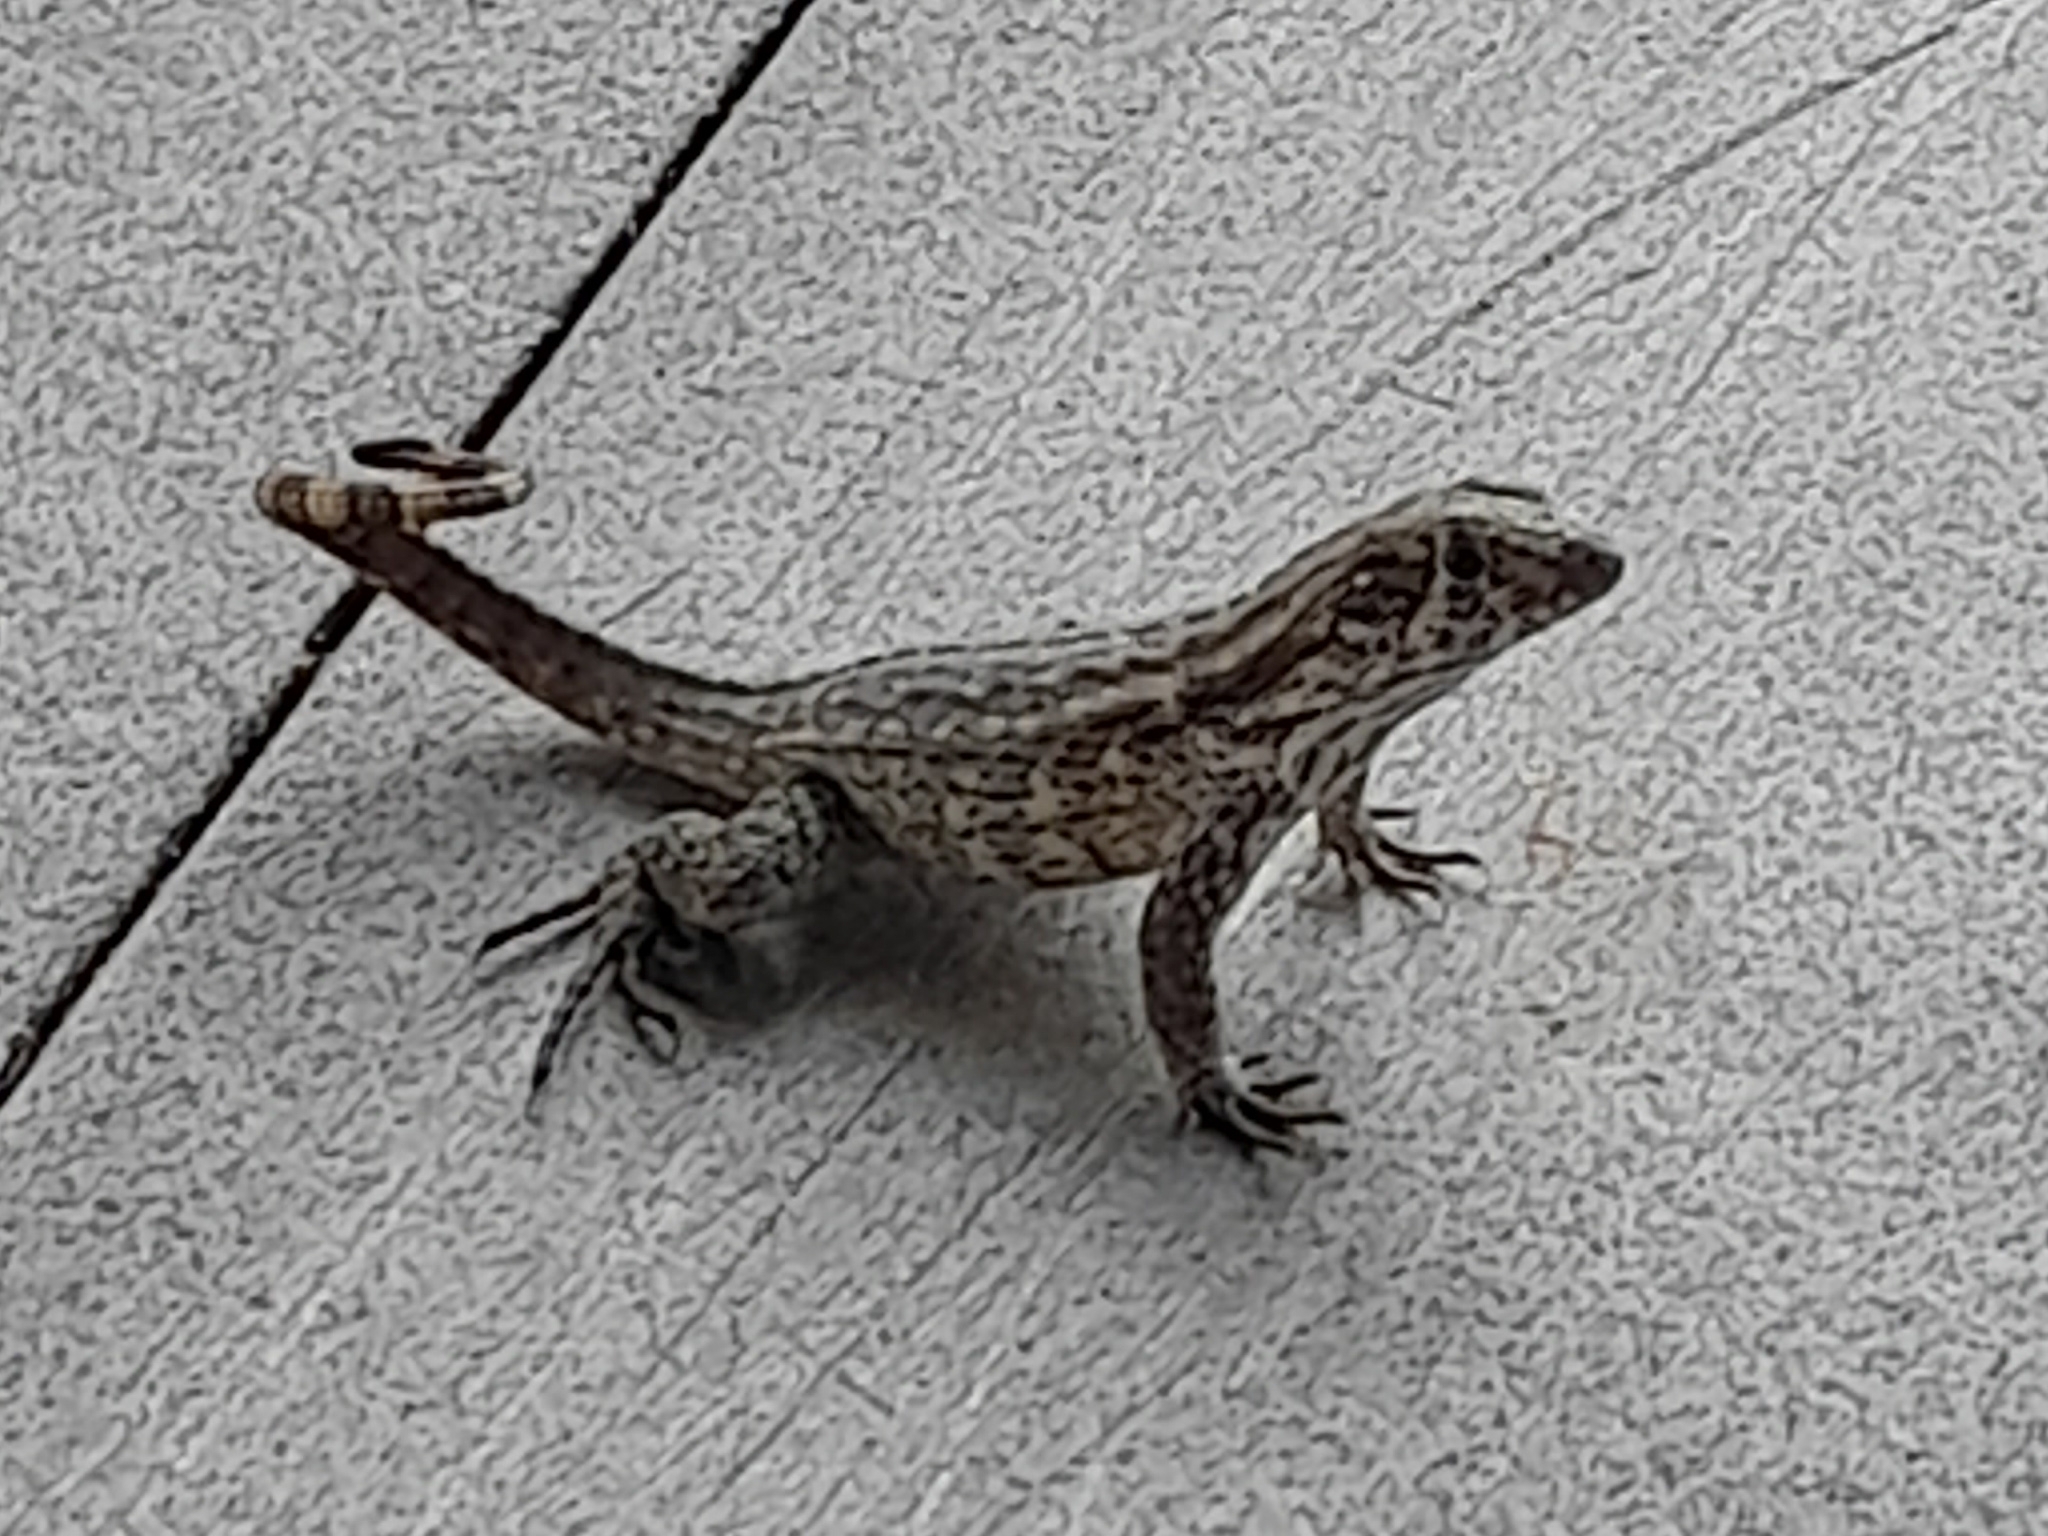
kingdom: Animalia
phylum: Chordata
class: Squamata
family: Leiocephalidae
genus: Leiocephalus
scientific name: Leiocephalus varius
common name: Cayman curlytail
